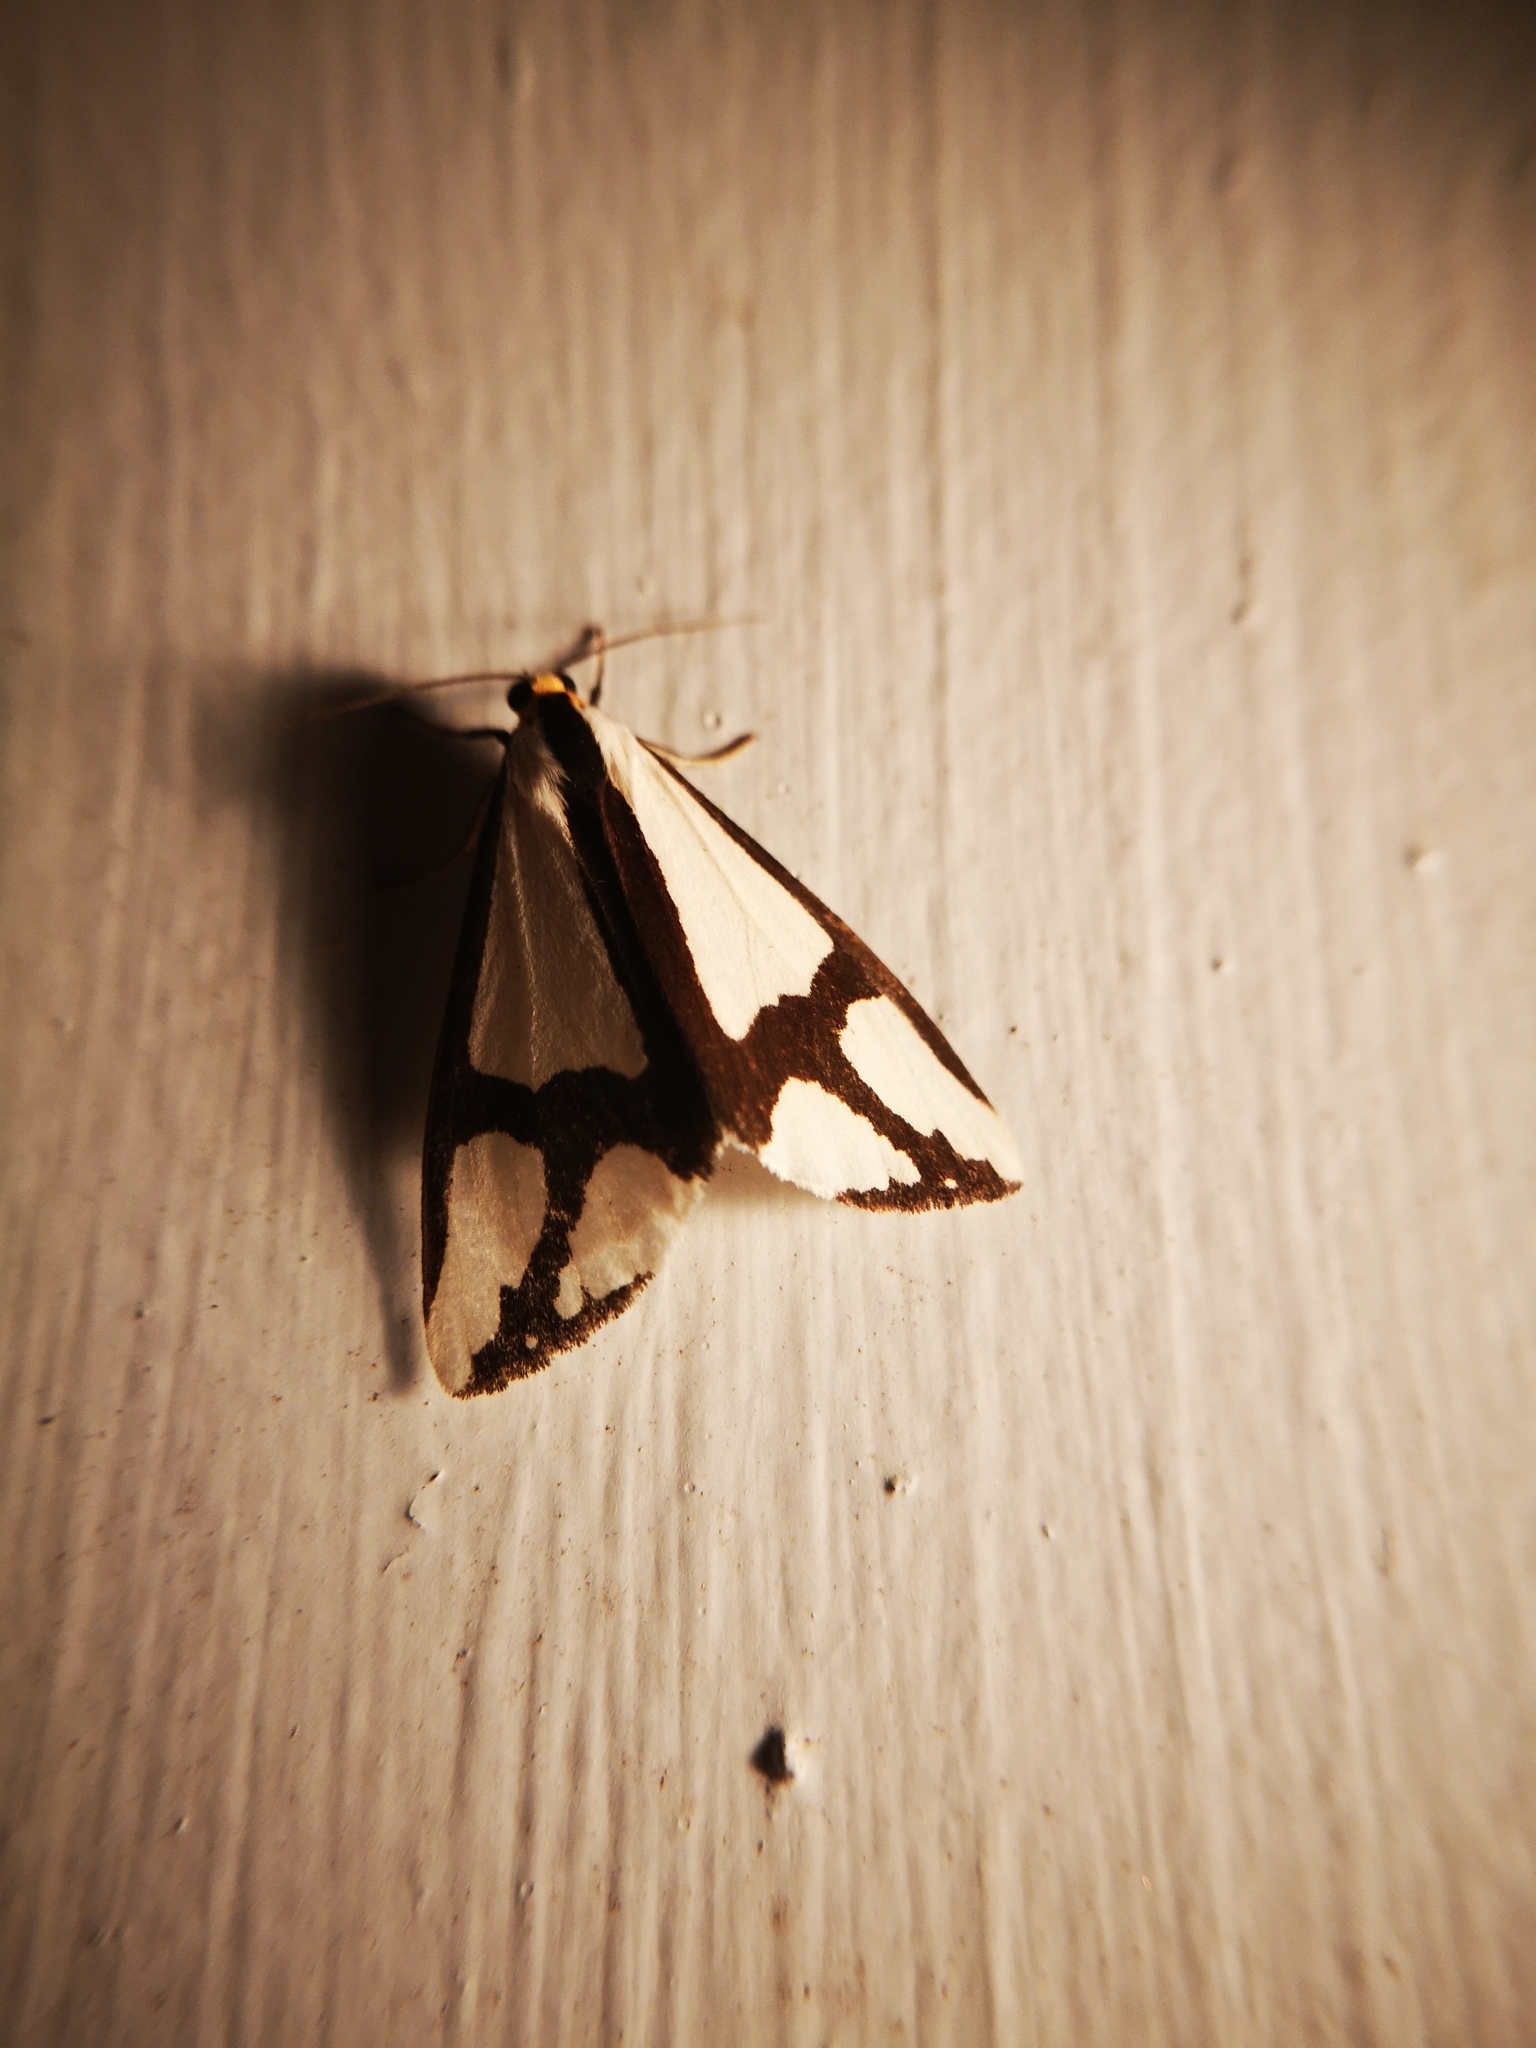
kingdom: Animalia
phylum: Arthropoda
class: Insecta
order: Lepidoptera
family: Erebidae
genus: Haploa
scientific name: Haploa contigua
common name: Neighbor moth
